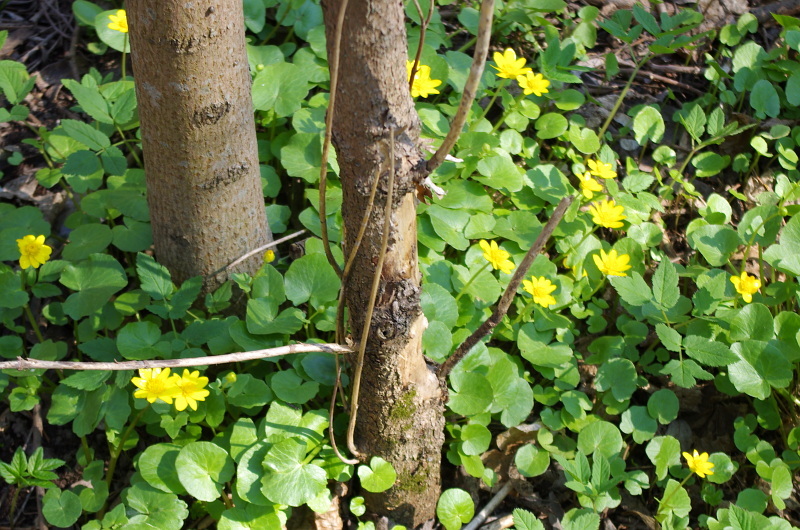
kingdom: Plantae
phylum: Tracheophyta
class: Magnoliopsida
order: Ranunculales
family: Ranunculaceae
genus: Ficaria
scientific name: Ficaria verna
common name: Lesser celandine
